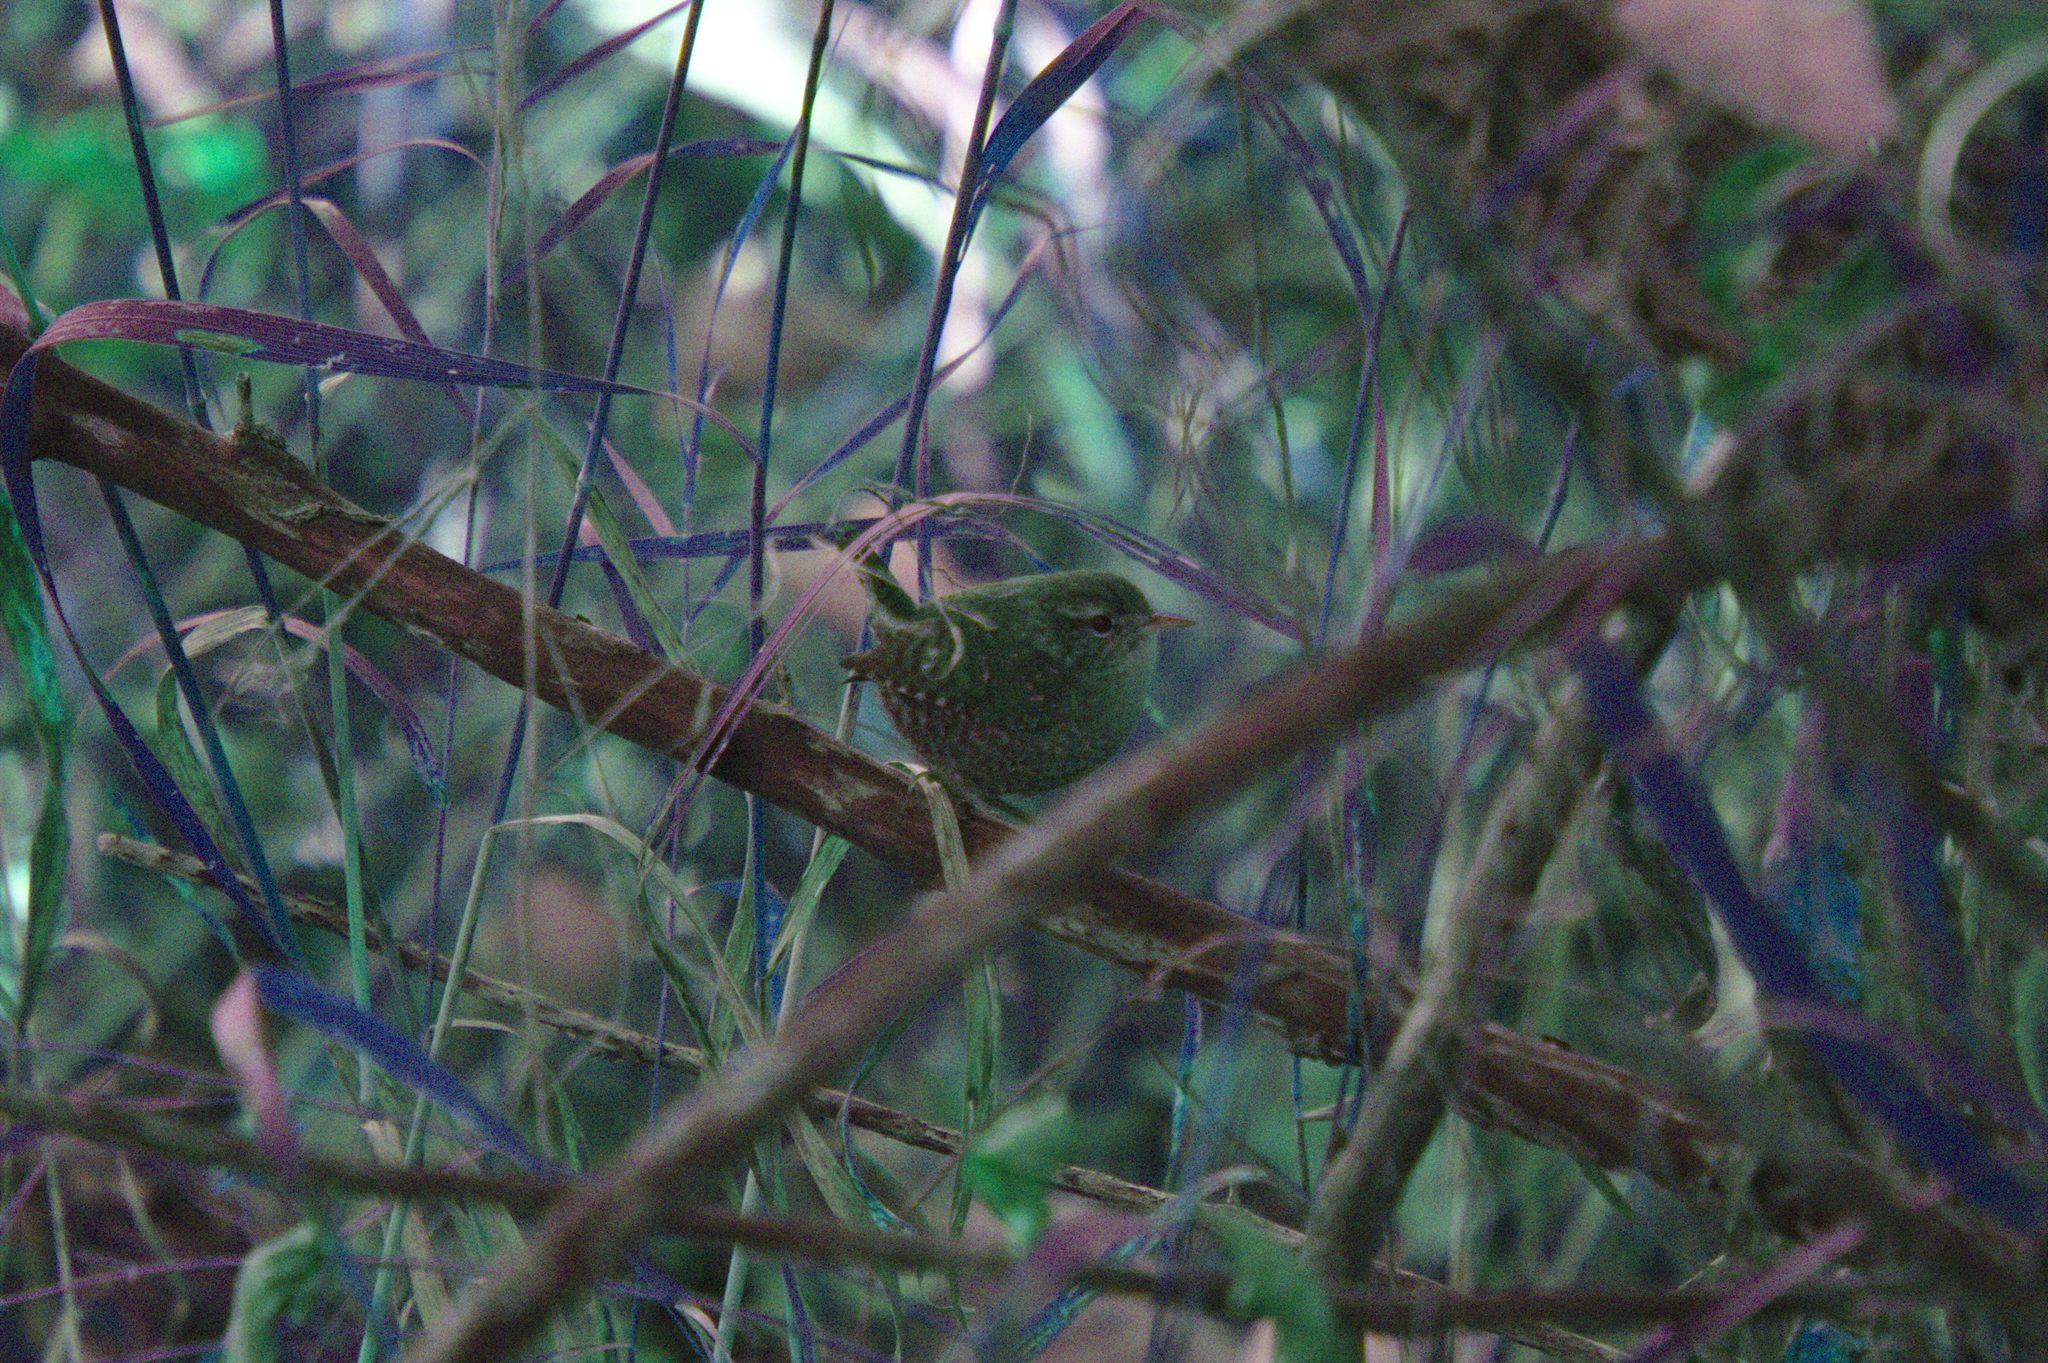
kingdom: Animalia
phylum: Chordata
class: Aves
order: Passeriformes
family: Troglodytidae
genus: Troglodytes
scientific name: Troglodytes hiemalis
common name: Winter wren
